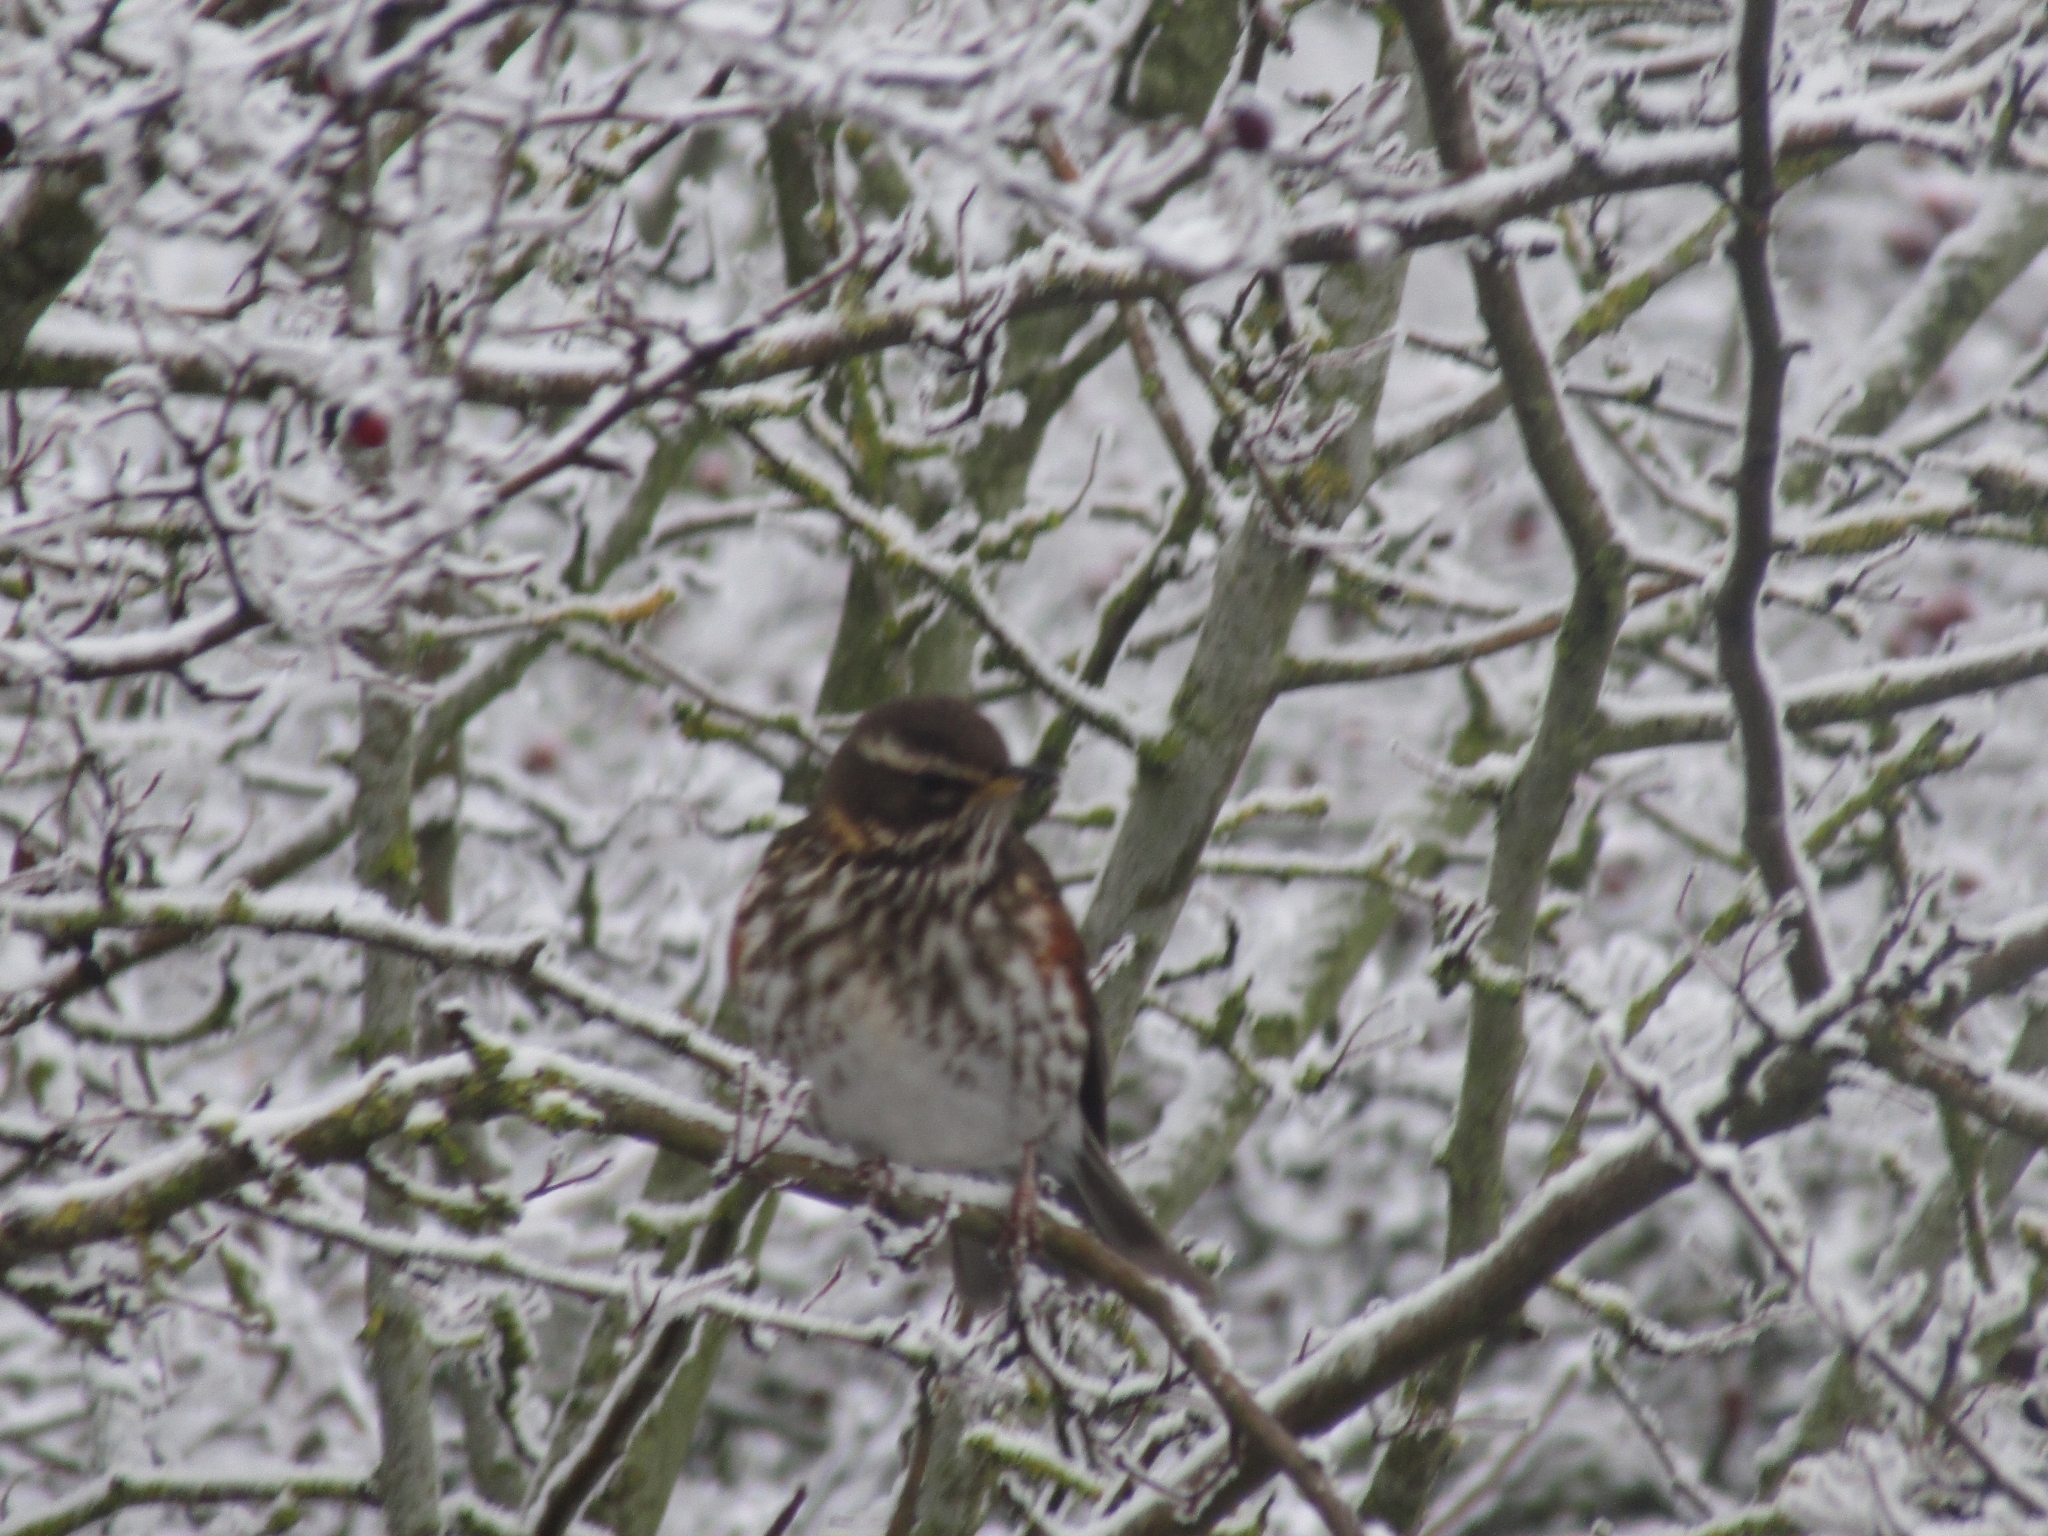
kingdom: Animalia
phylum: Chordata
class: Aves
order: Passeriformes
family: Turdidae
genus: Turdus
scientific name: Turdus iliacus
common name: Redwing
